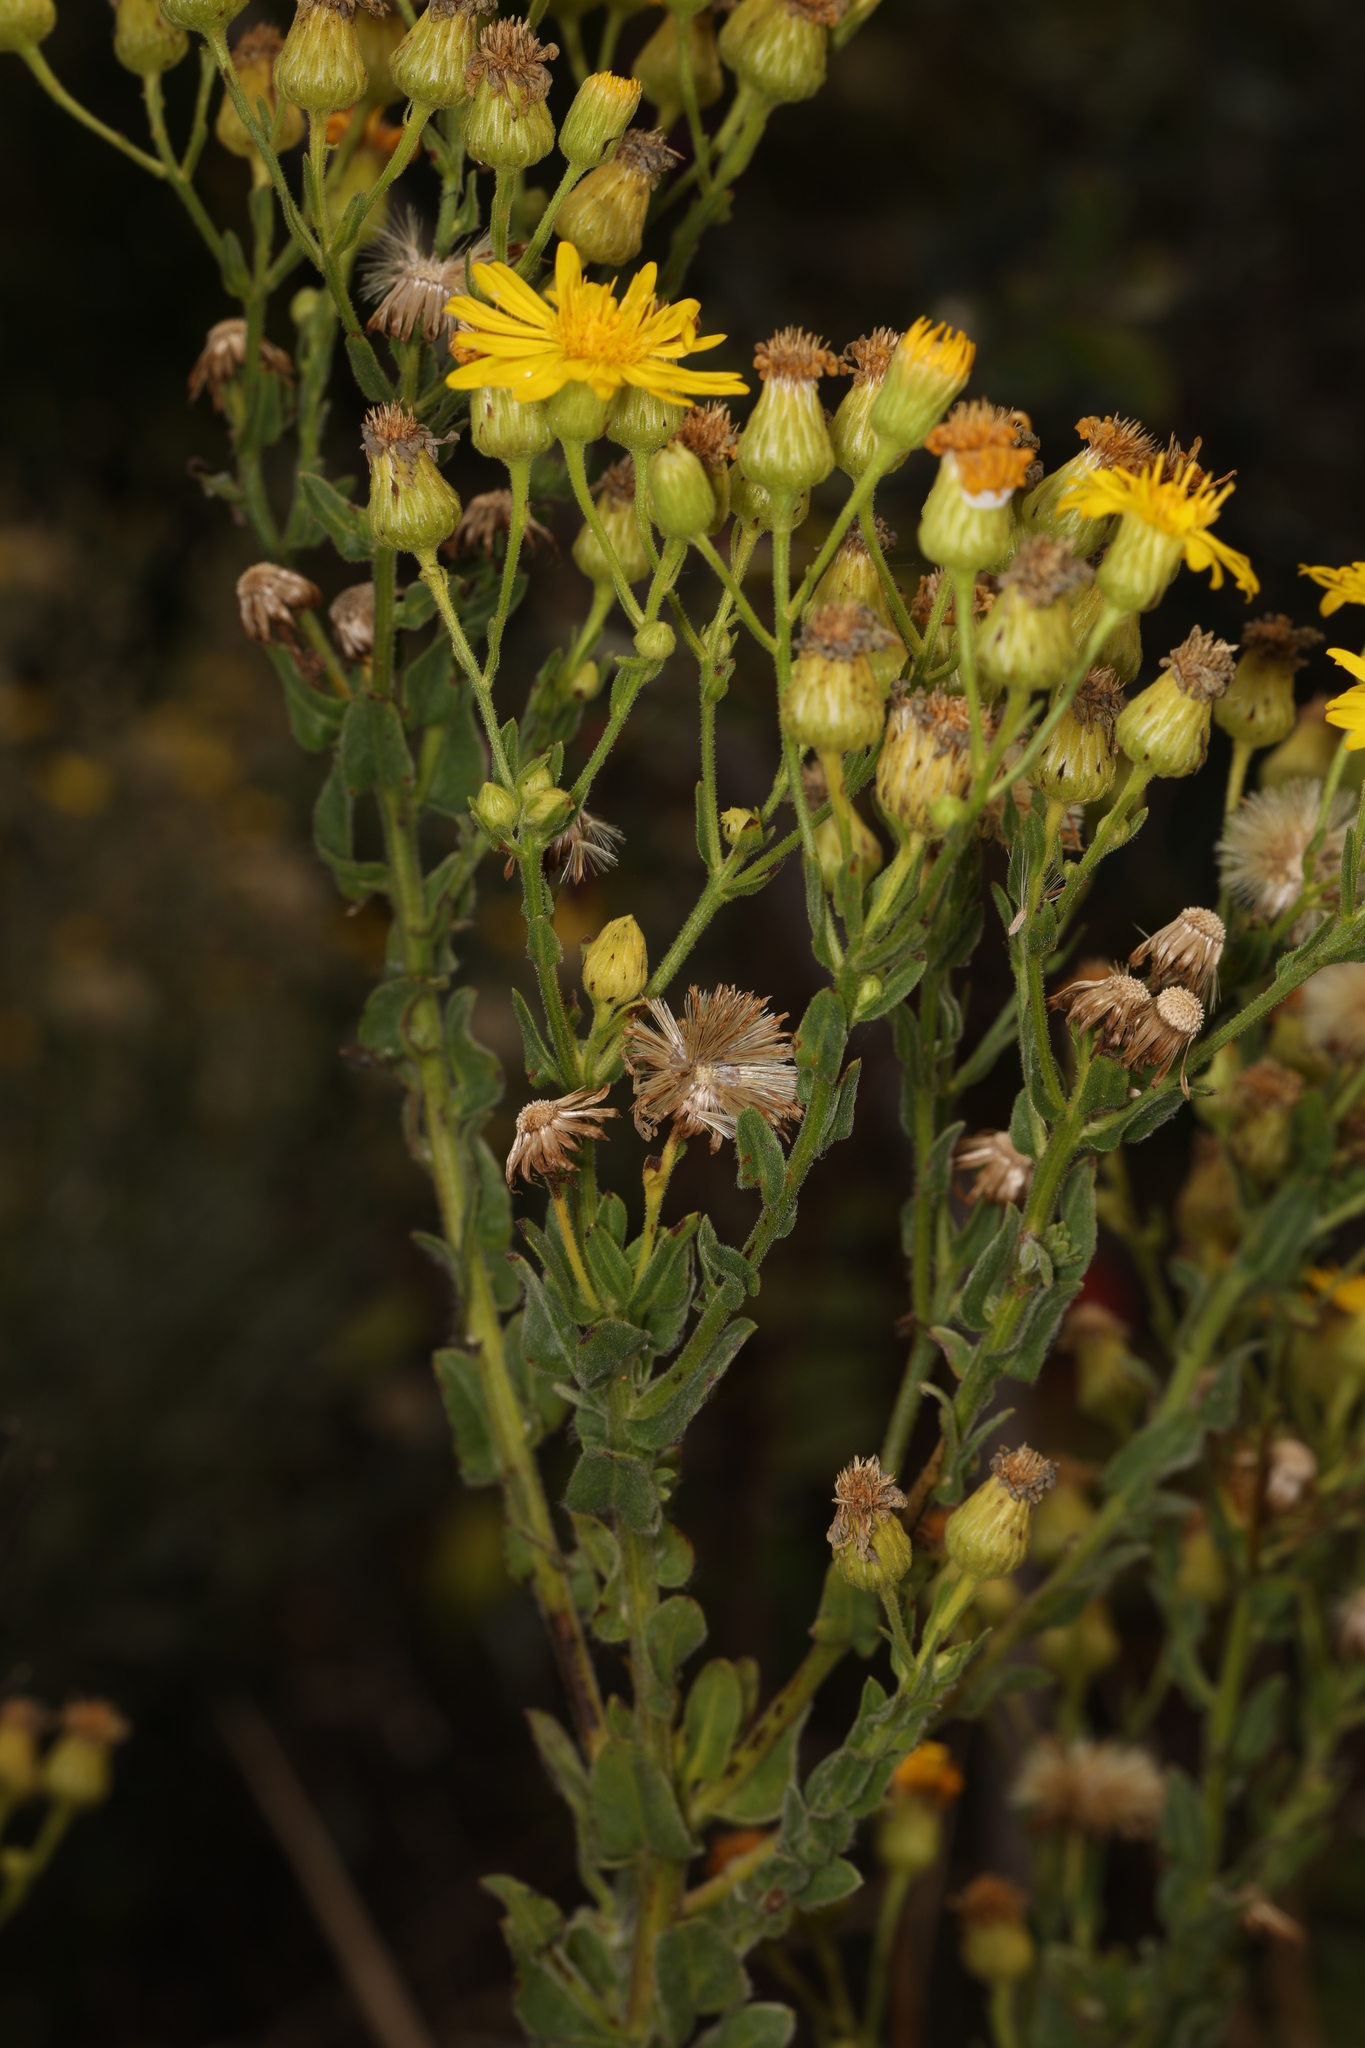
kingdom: Plantae
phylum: Tracheophyta
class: Magnoliopsida
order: Asterales
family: Asteraceae
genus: Chrysopsis
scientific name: Chrysopsis floridana
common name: Florida golden-aster
